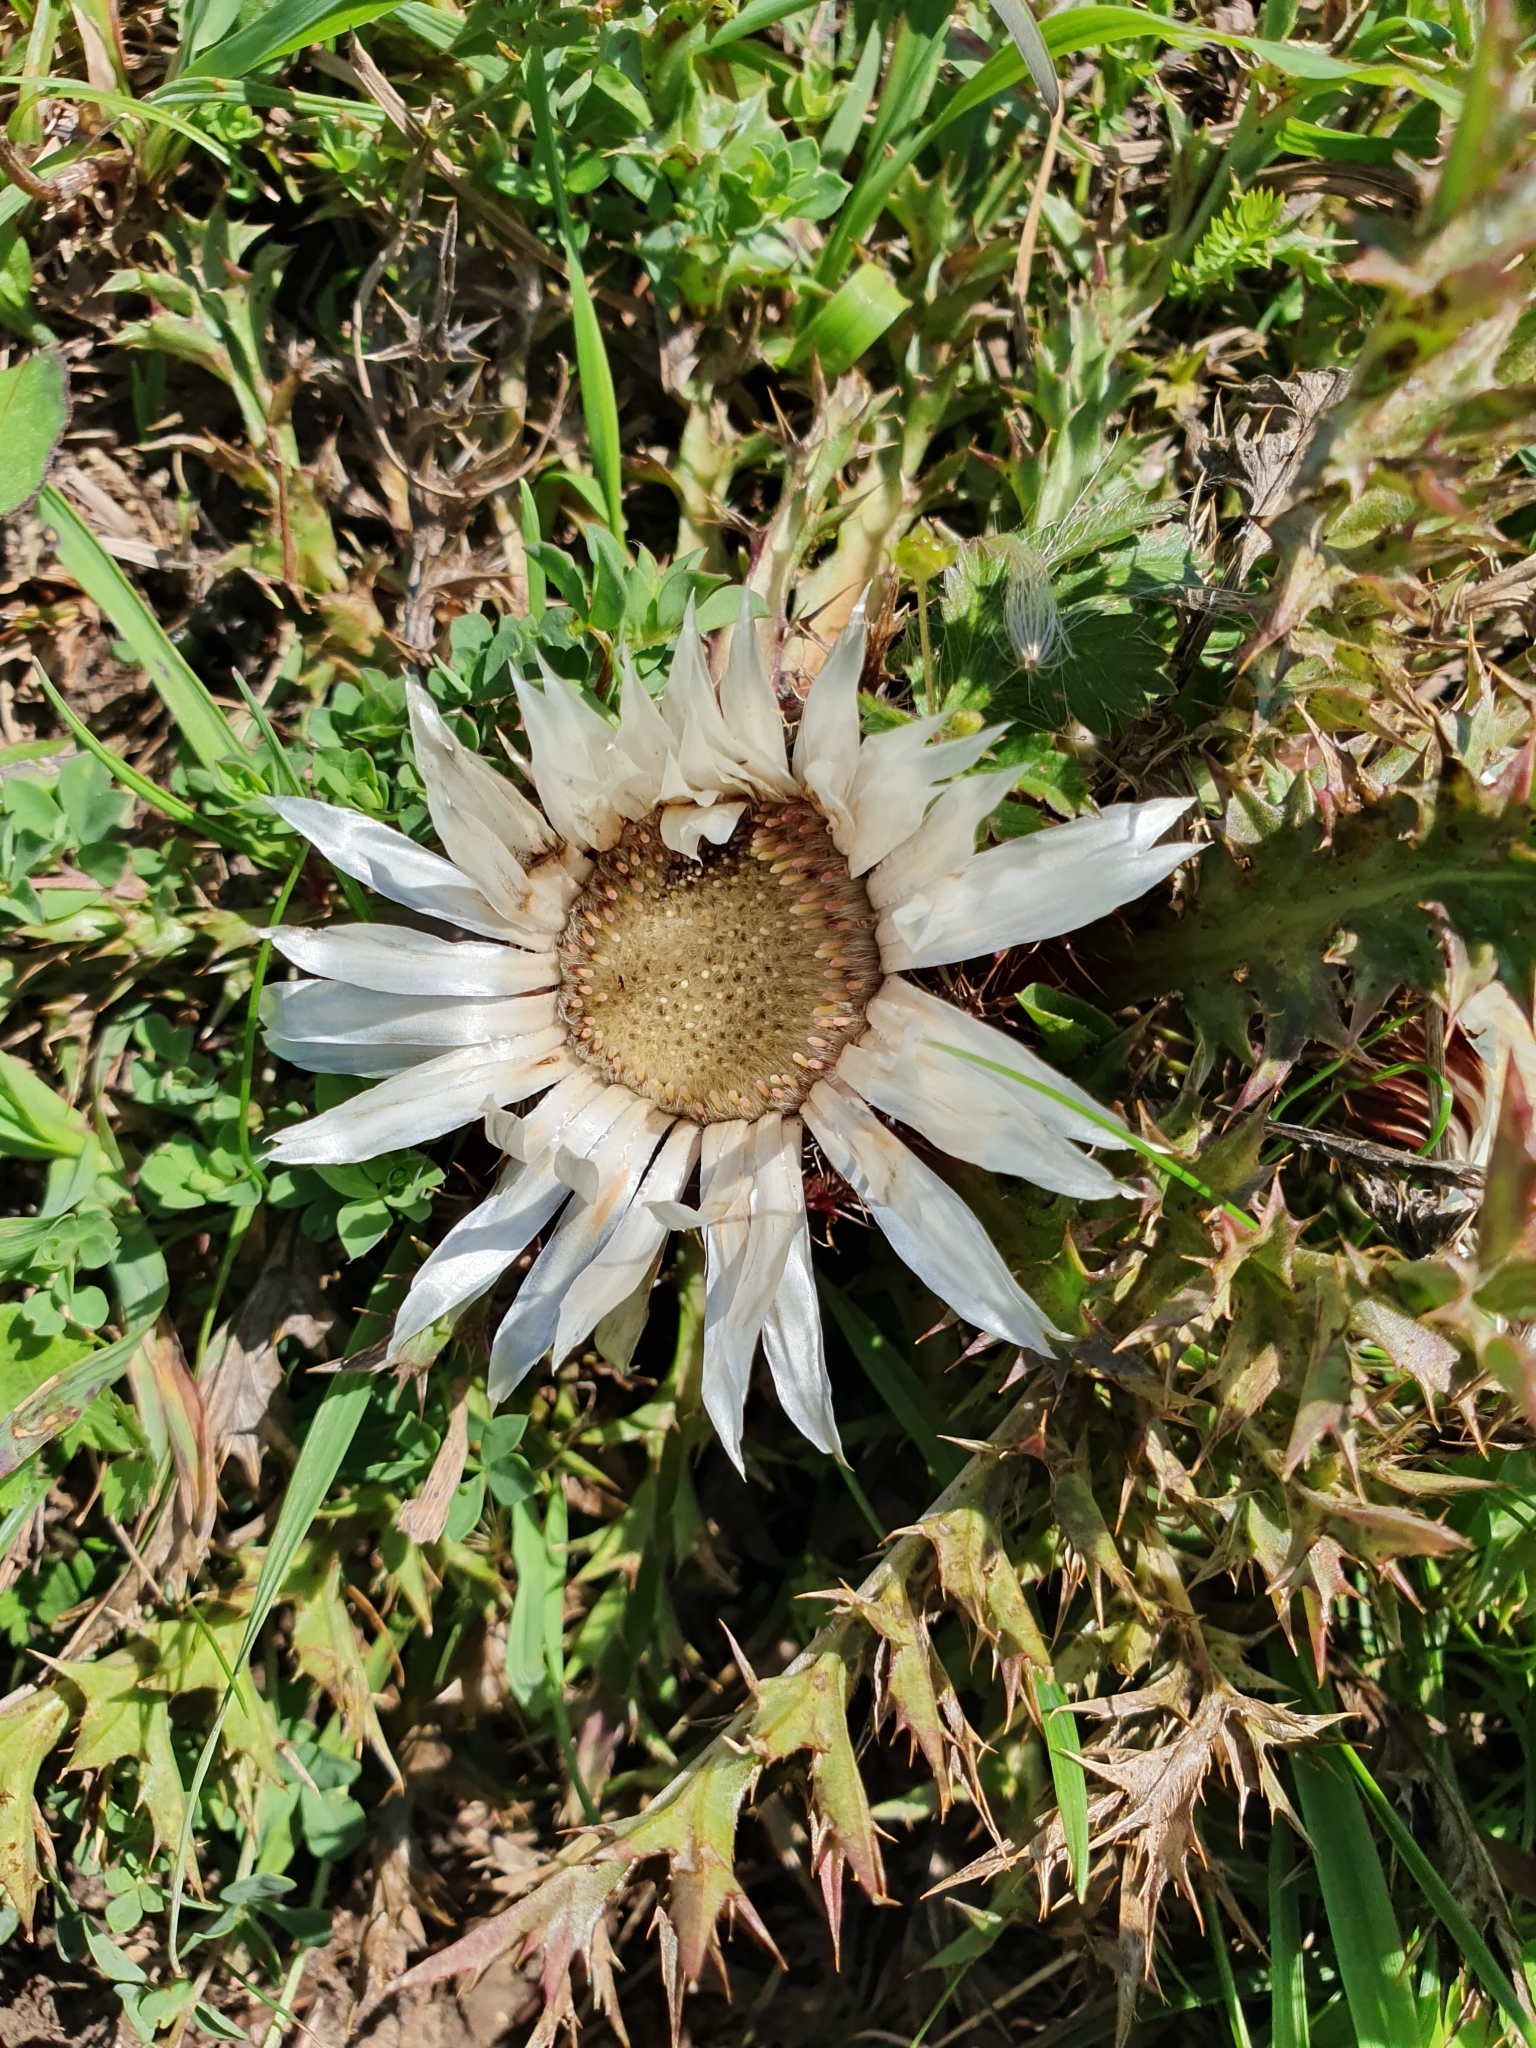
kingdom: Plantae
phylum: Tracheophyta
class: Magnoliopsida
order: Asterales
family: Asteraceae
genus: Carlina
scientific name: Carlina acaulis
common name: Stemless carline thistle
